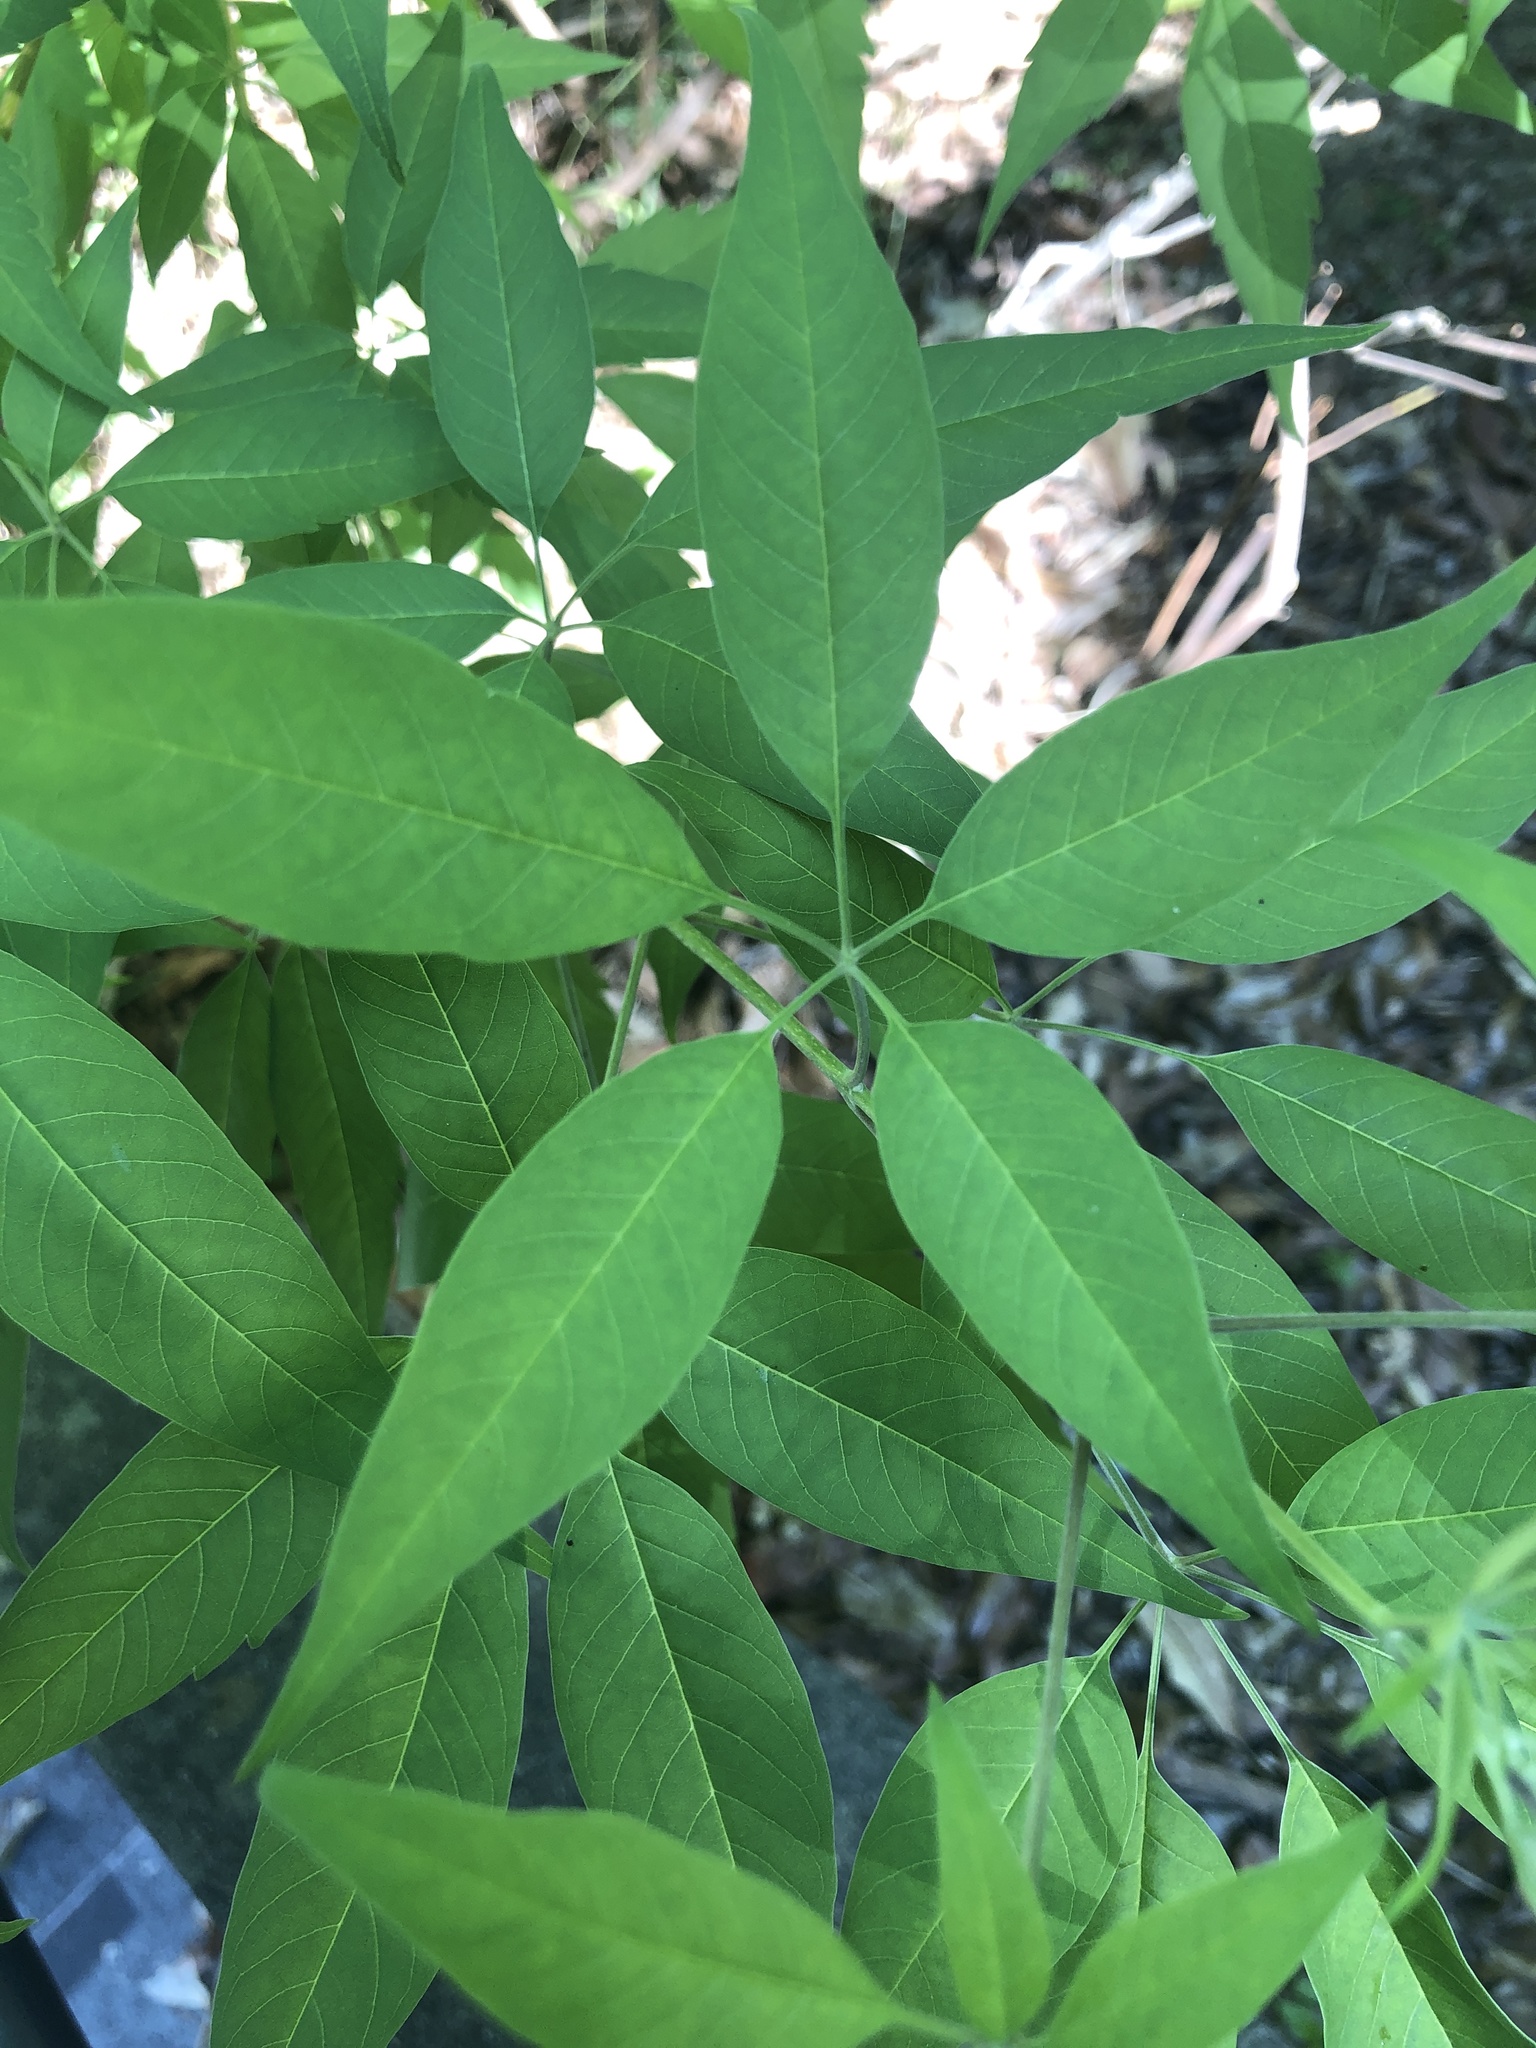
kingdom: Plantae
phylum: Tracheophyta
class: Magnoliopsida
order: Lamiales
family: Lamiaceae
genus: Vitex
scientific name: Vitex negundo
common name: Chinese chastetree
